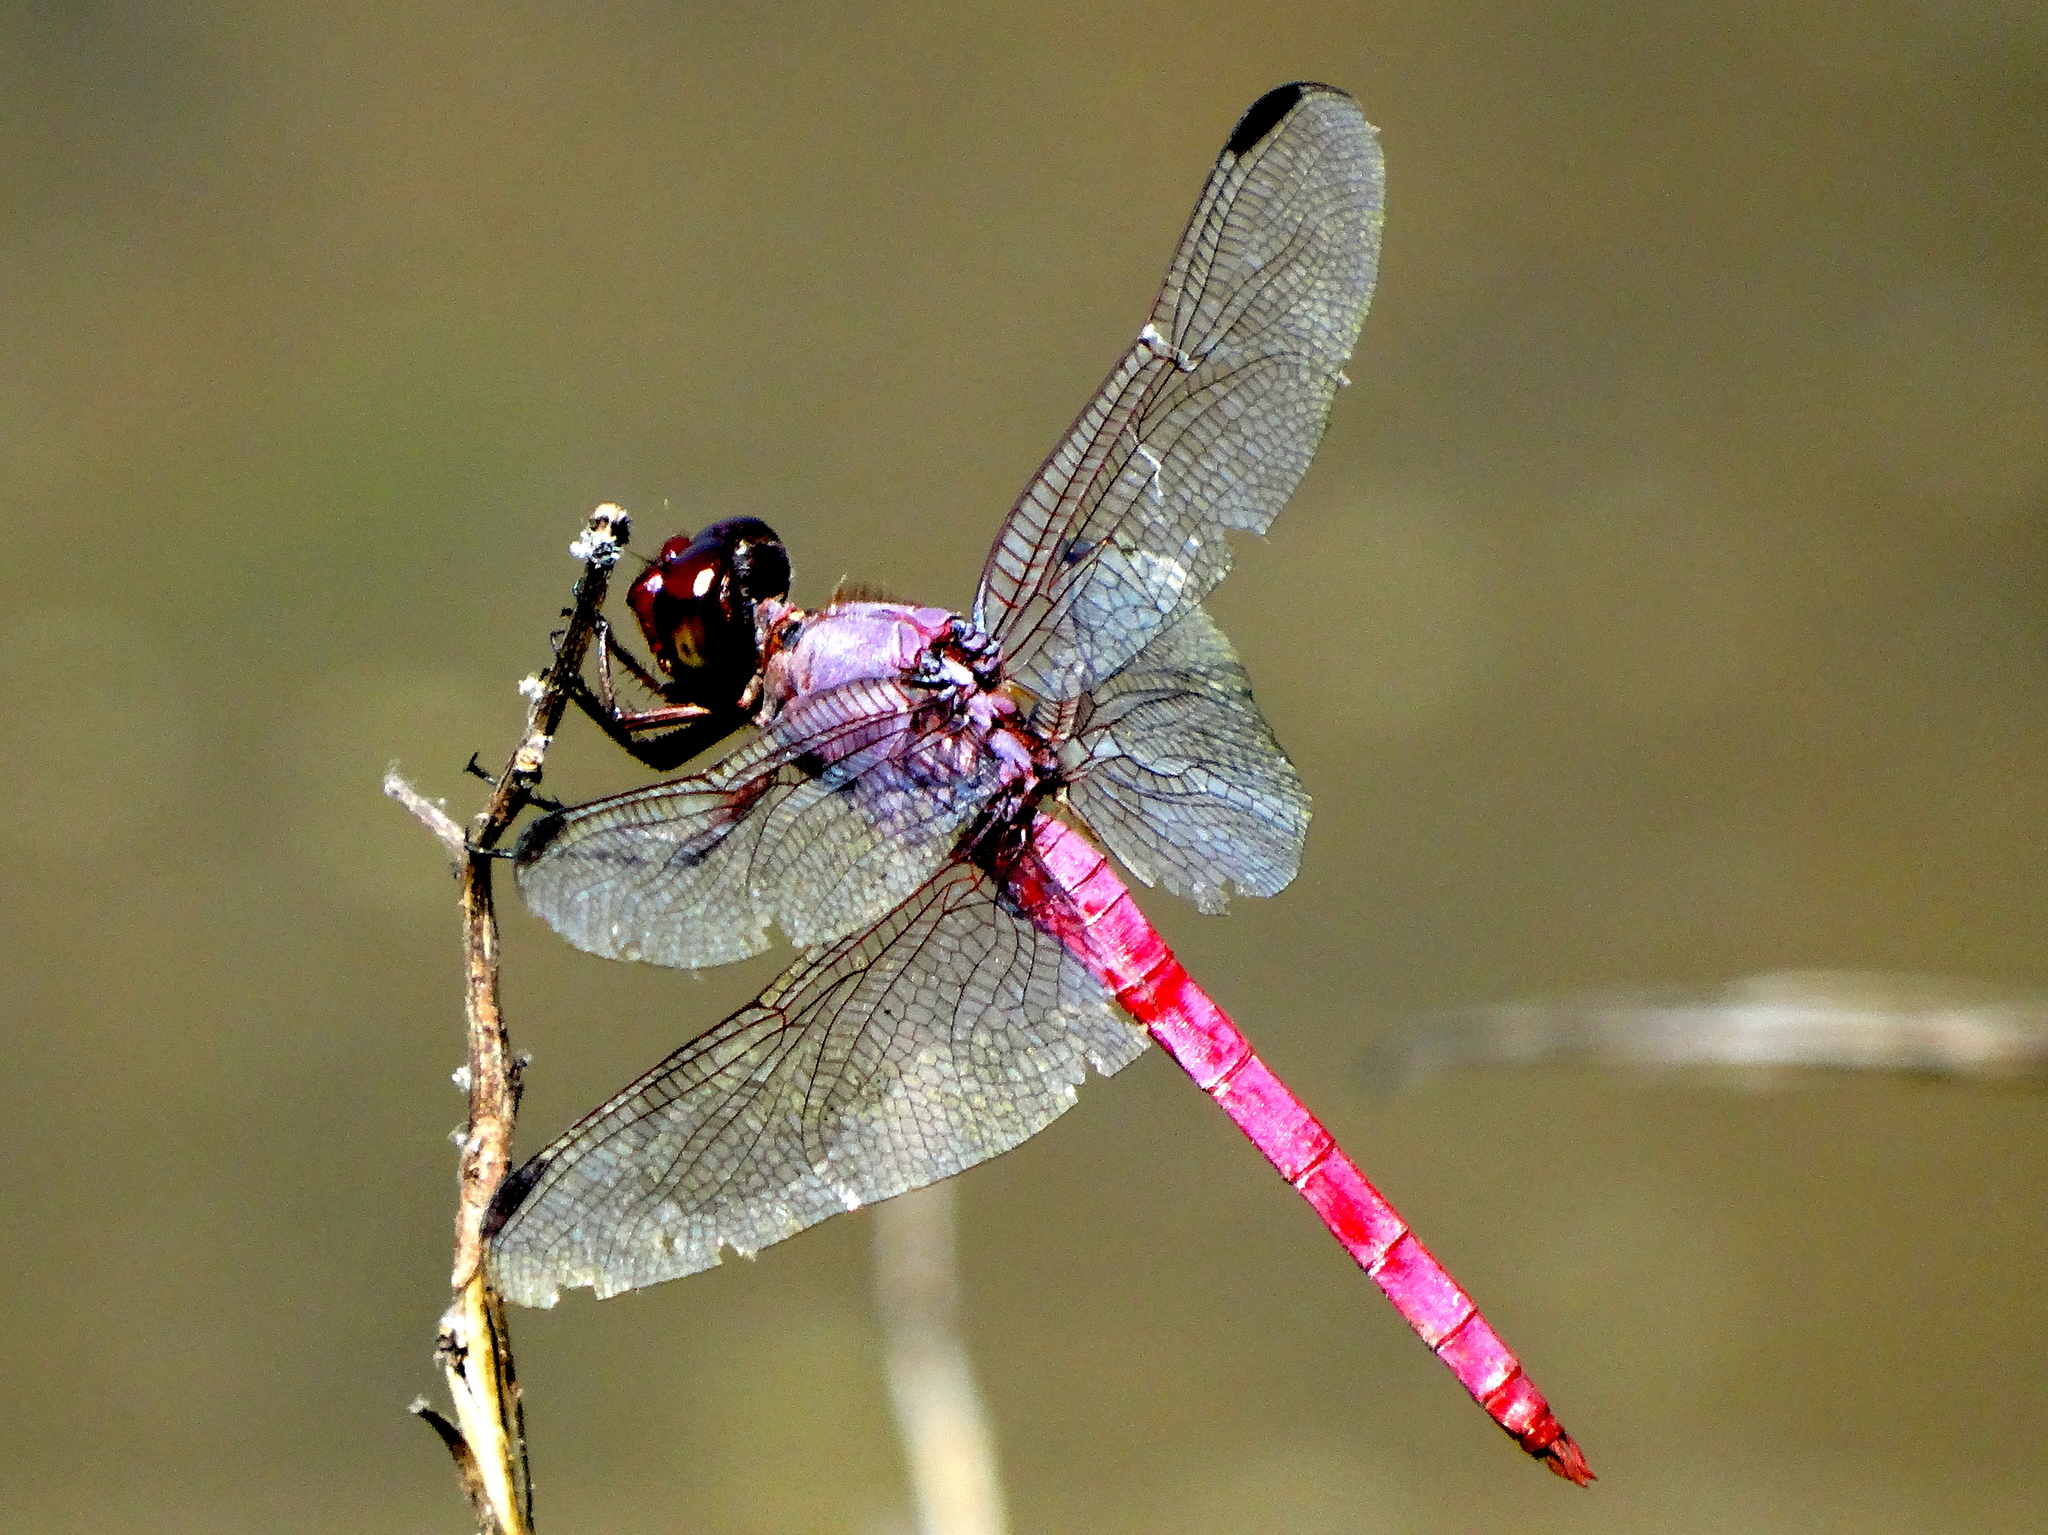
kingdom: Animalia
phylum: Arthropoda
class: Insecta
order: Odonata
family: Libellulidae
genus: Orthemis
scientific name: Orthemis ferruginea
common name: Roseate skimmer
